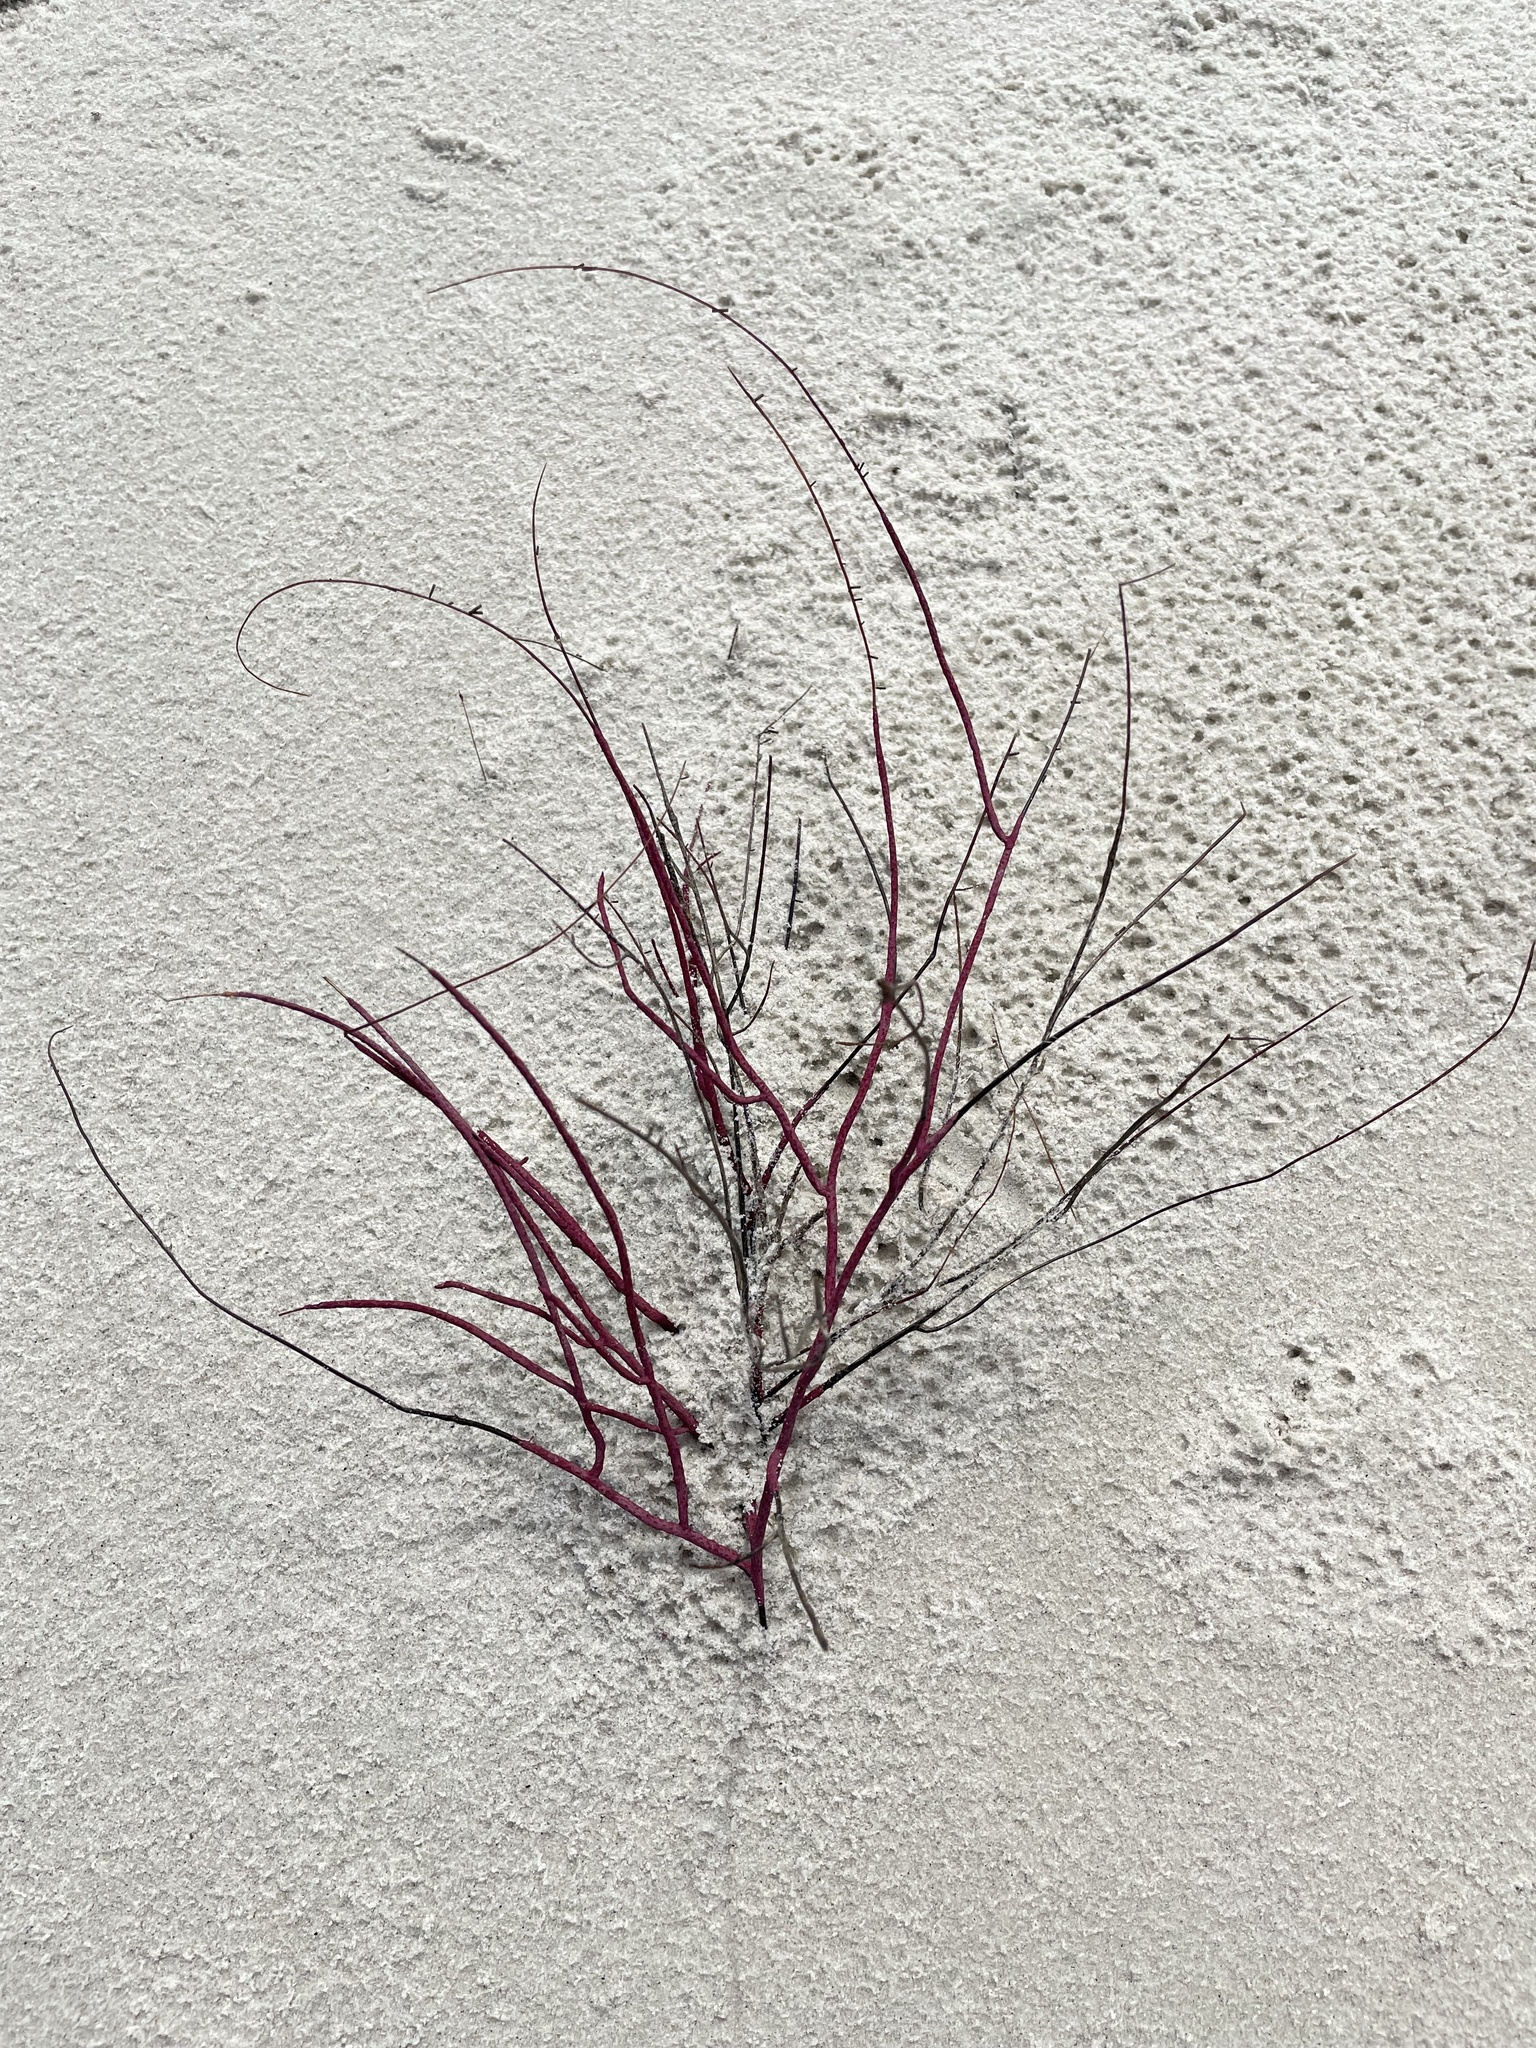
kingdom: Animalia
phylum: Cnidaria
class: Anthozoa
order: Malacalcyonacea
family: Gorgoniidae
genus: Leptogorgia
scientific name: Leptogorgia virgulata
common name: Colorful sea whip
